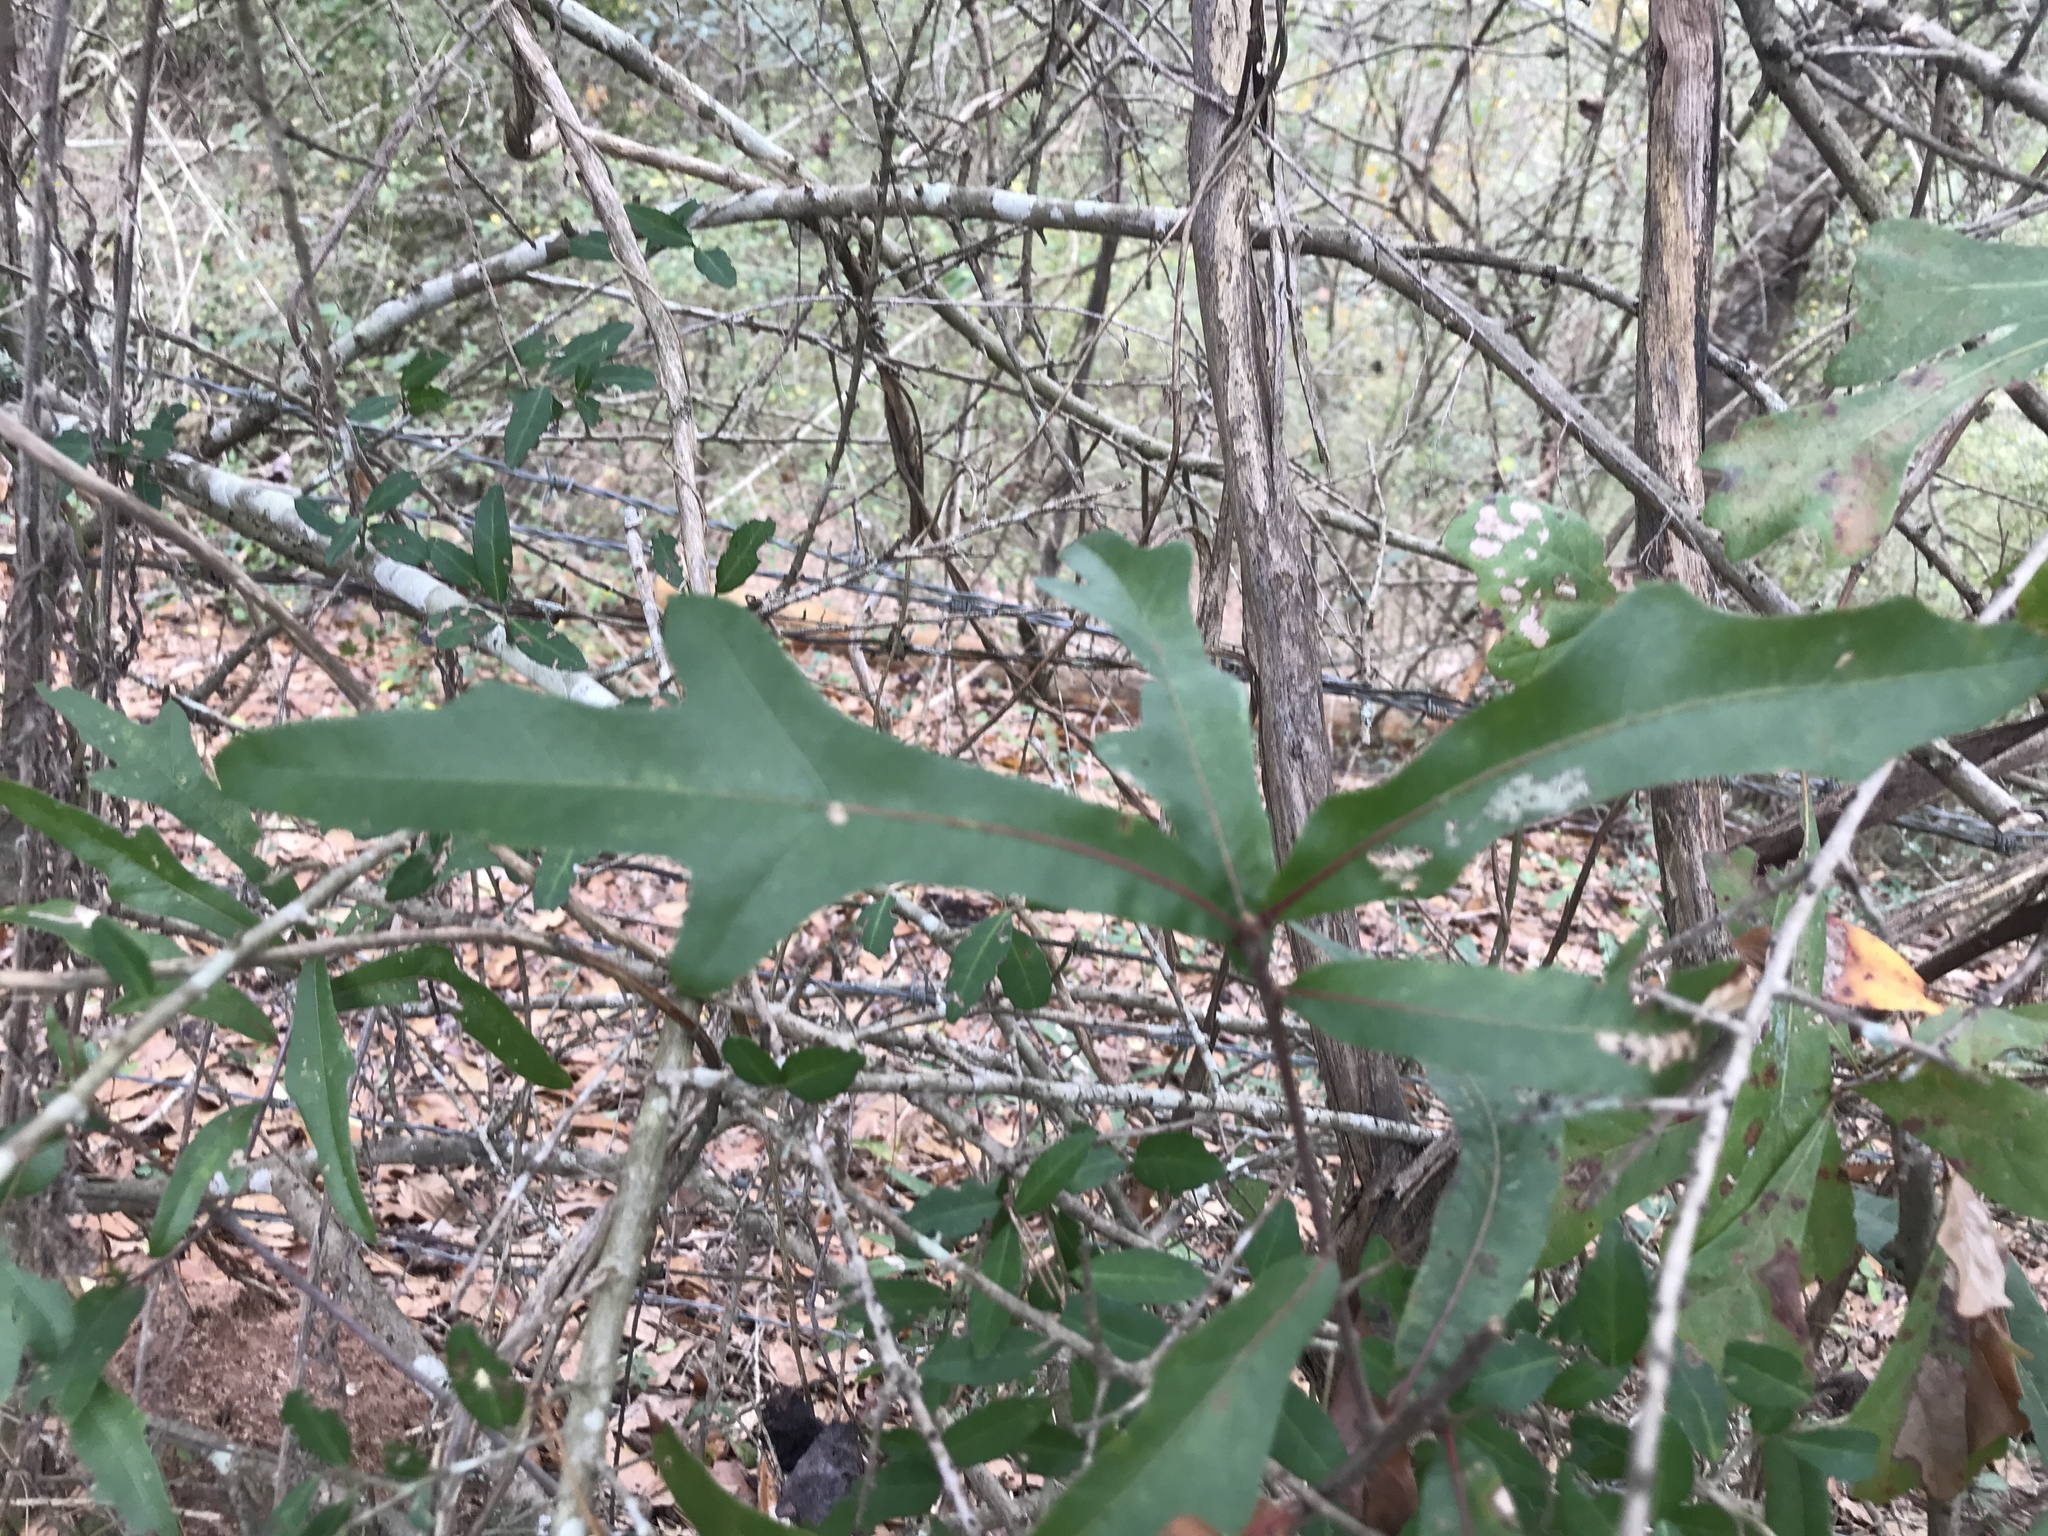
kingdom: Plantae
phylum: Tracheophyta
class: Magnoliopsida
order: Fagales
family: Fagaceae
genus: Quercus
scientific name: Quercus nigra
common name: Water oak
